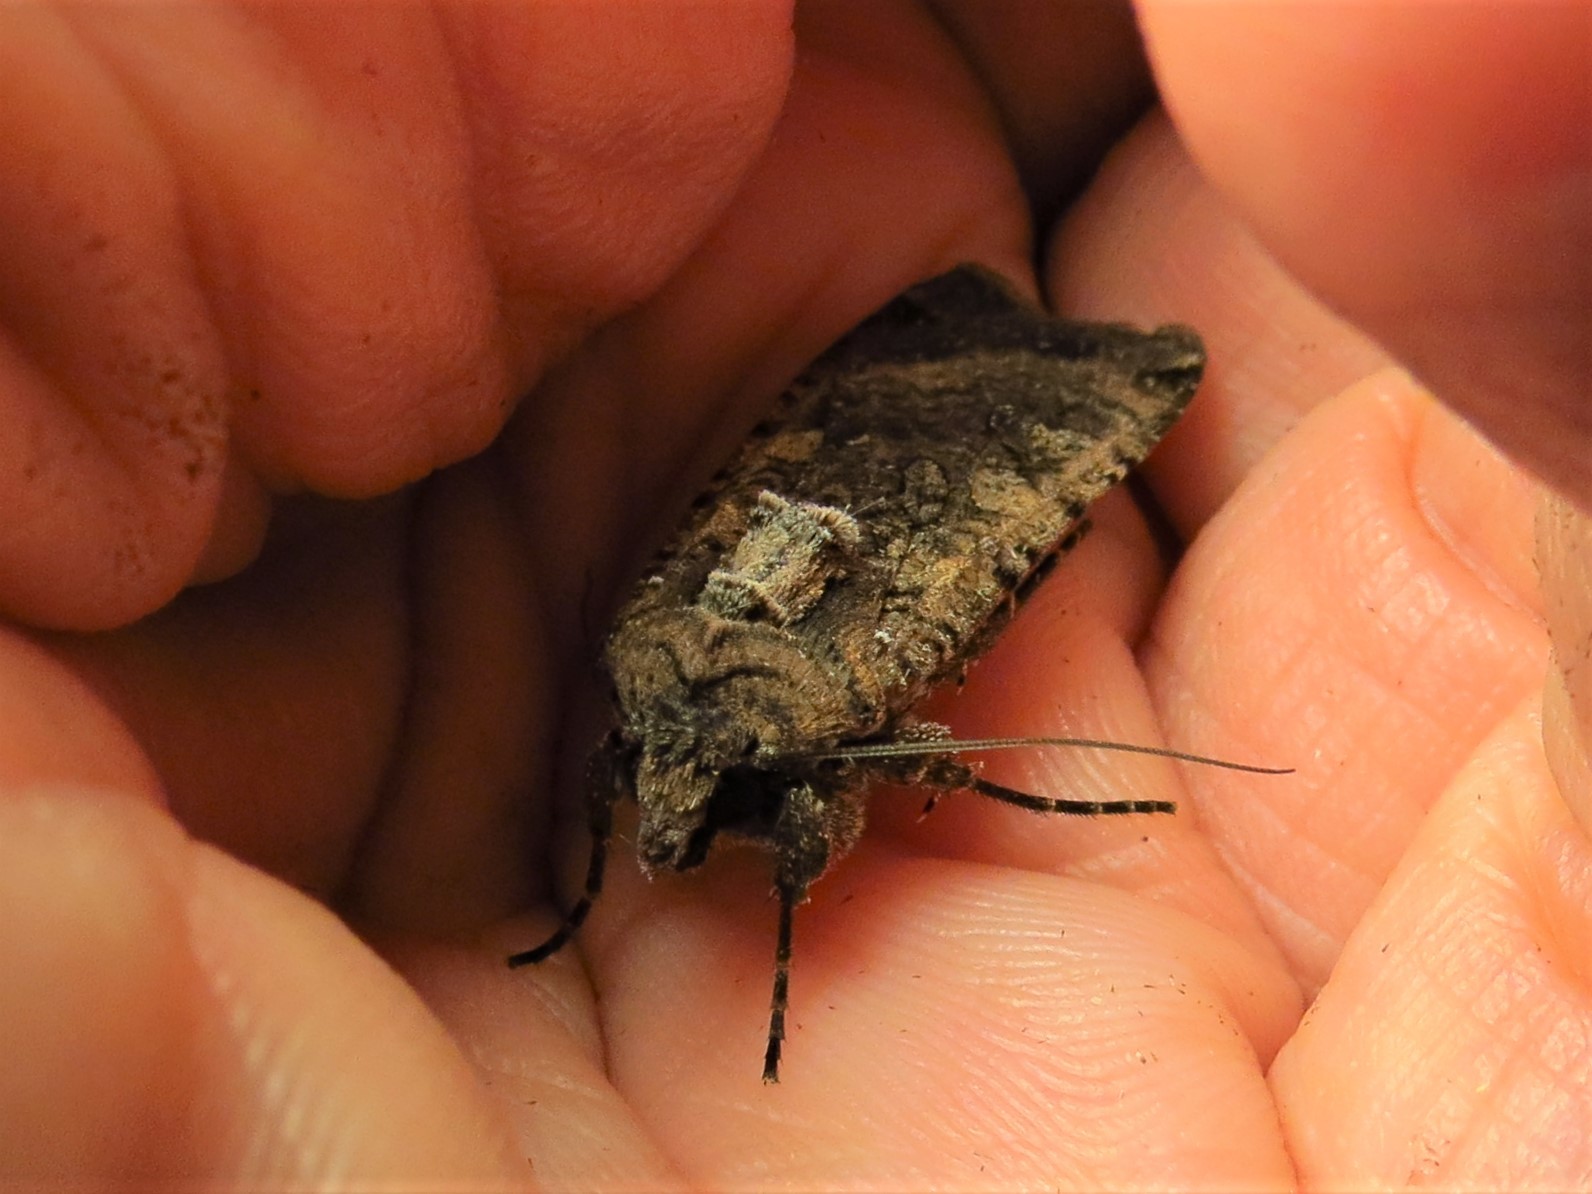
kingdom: Animalia
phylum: Arthropoda
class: Insecta
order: Lepidoptera
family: Noctuidae
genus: Peridroma
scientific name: Peridroma saucia
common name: Pearly underwing
